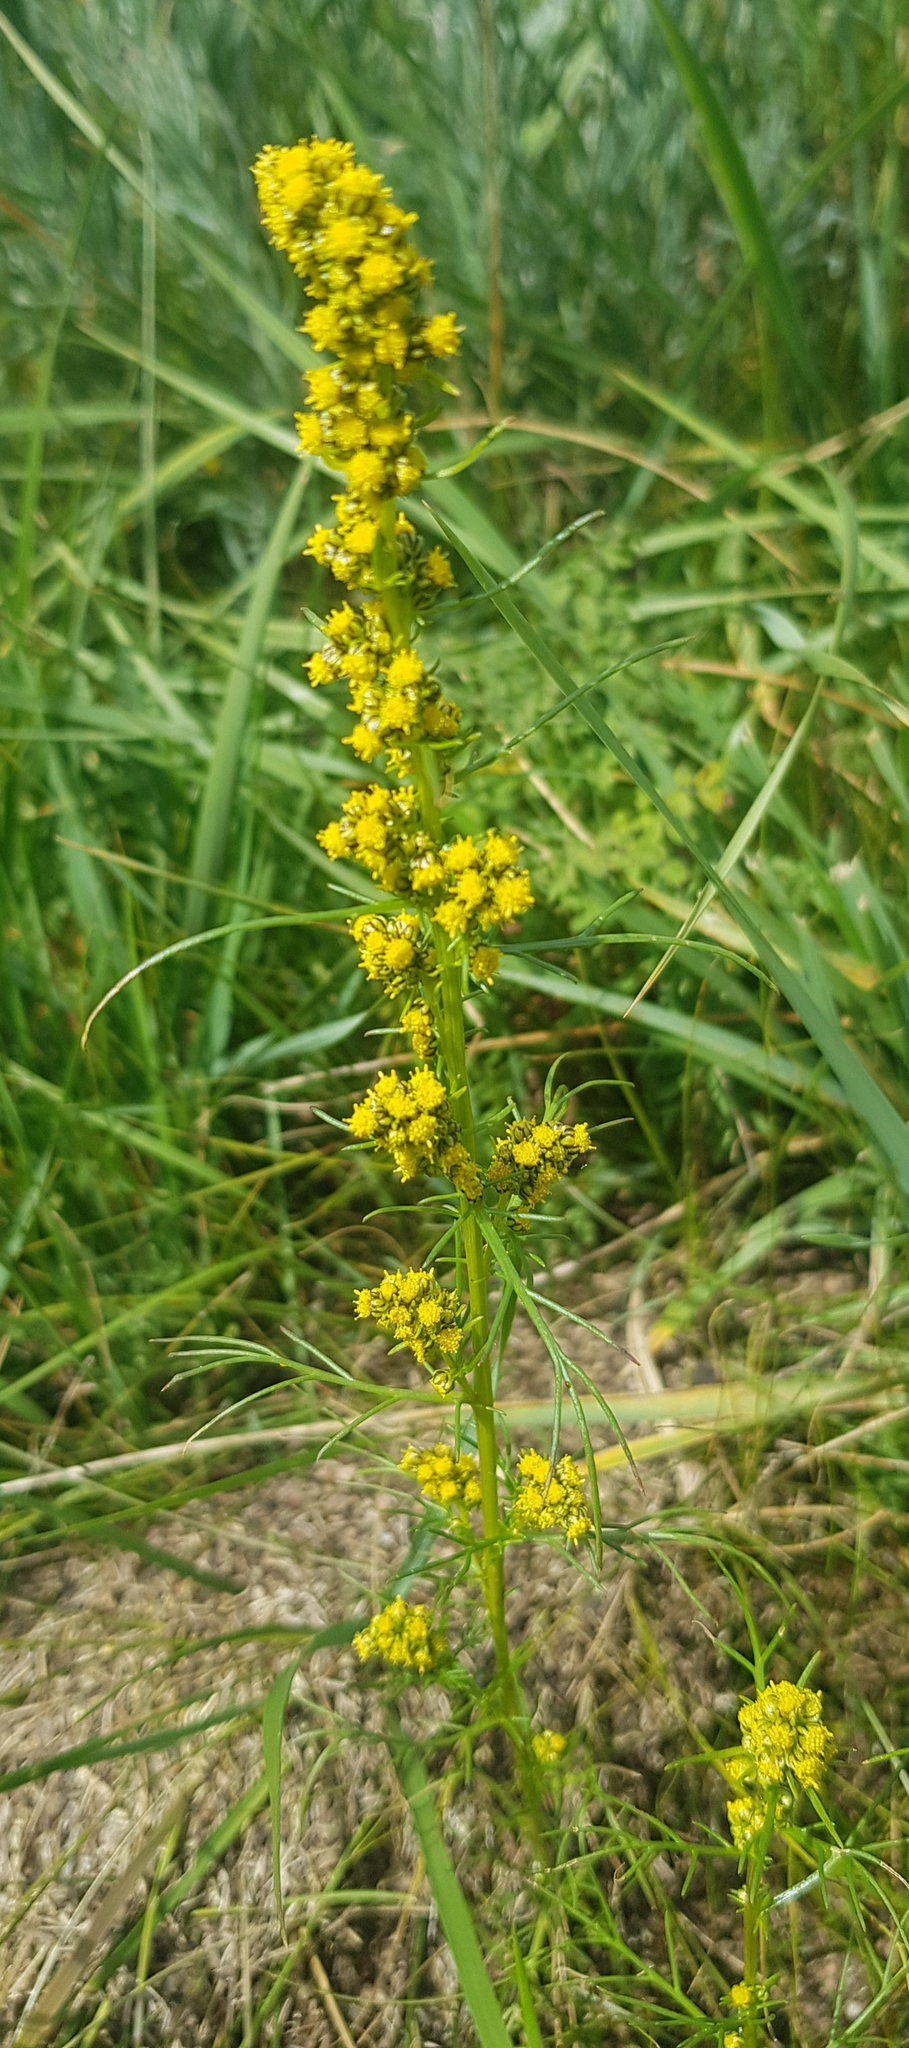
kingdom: Plantae
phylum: Tracheophyta
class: Magnoliopsida
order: Asterales
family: Asteraceae
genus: Artemisia
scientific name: Artemisia palustris
